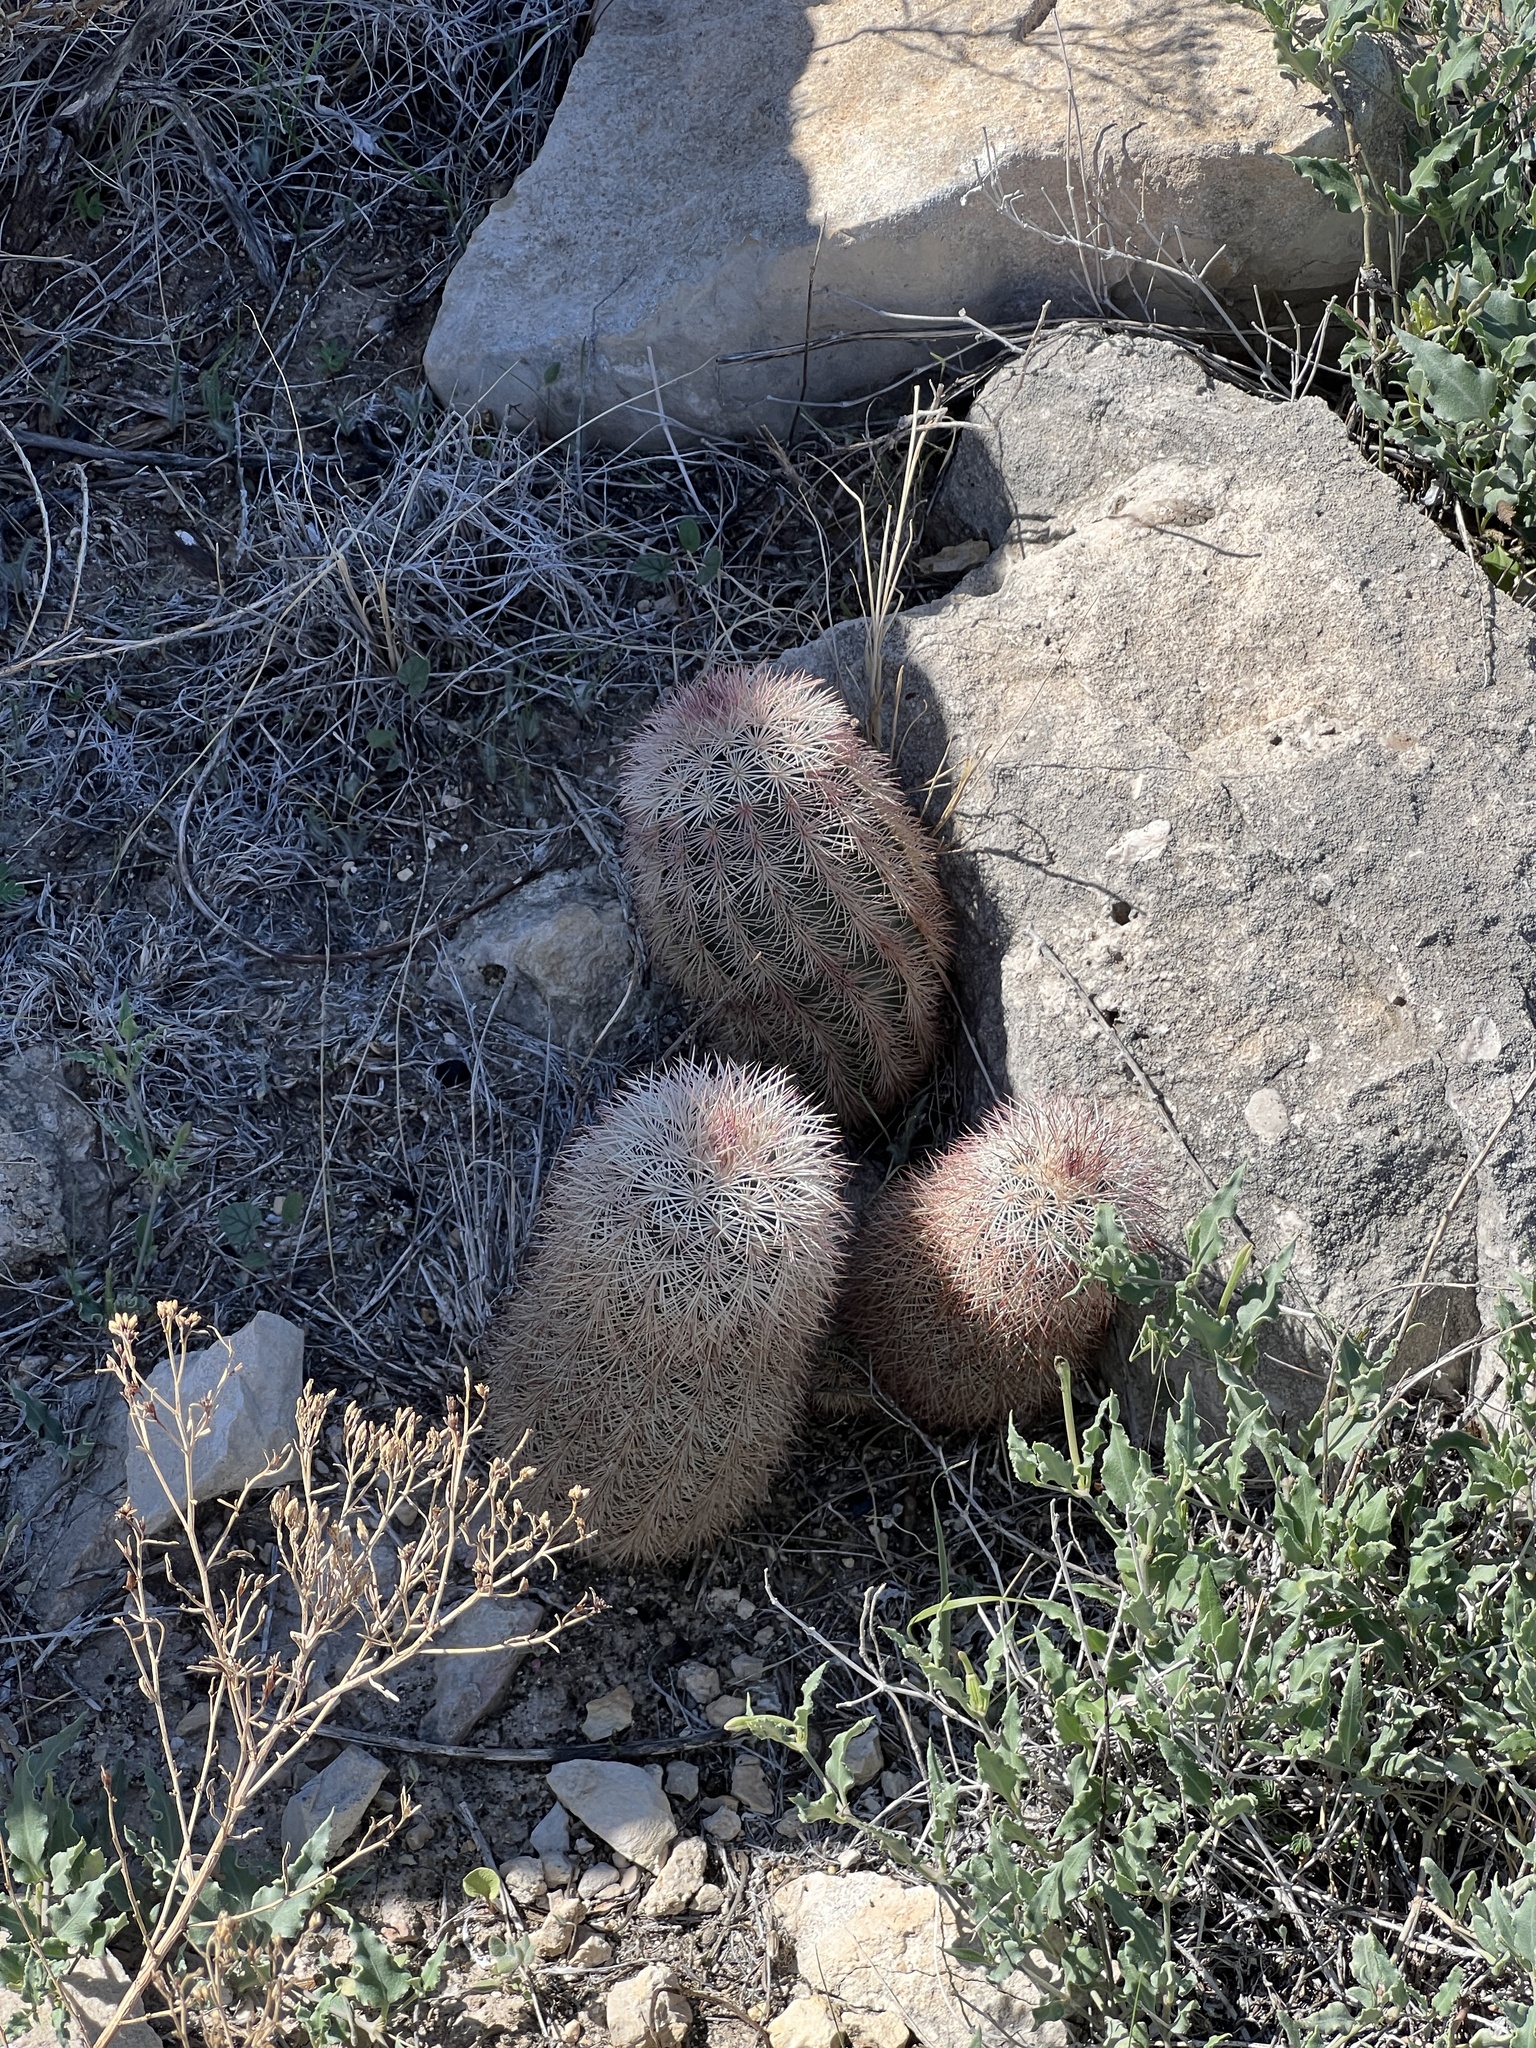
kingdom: Plantae
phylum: Tracheophyta
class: Magnoliopsida
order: Caryophyllales
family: Cactaceae
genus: Echinocereus
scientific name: Echinocereus dasyacanthus
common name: Spiny hedgehog cactus
